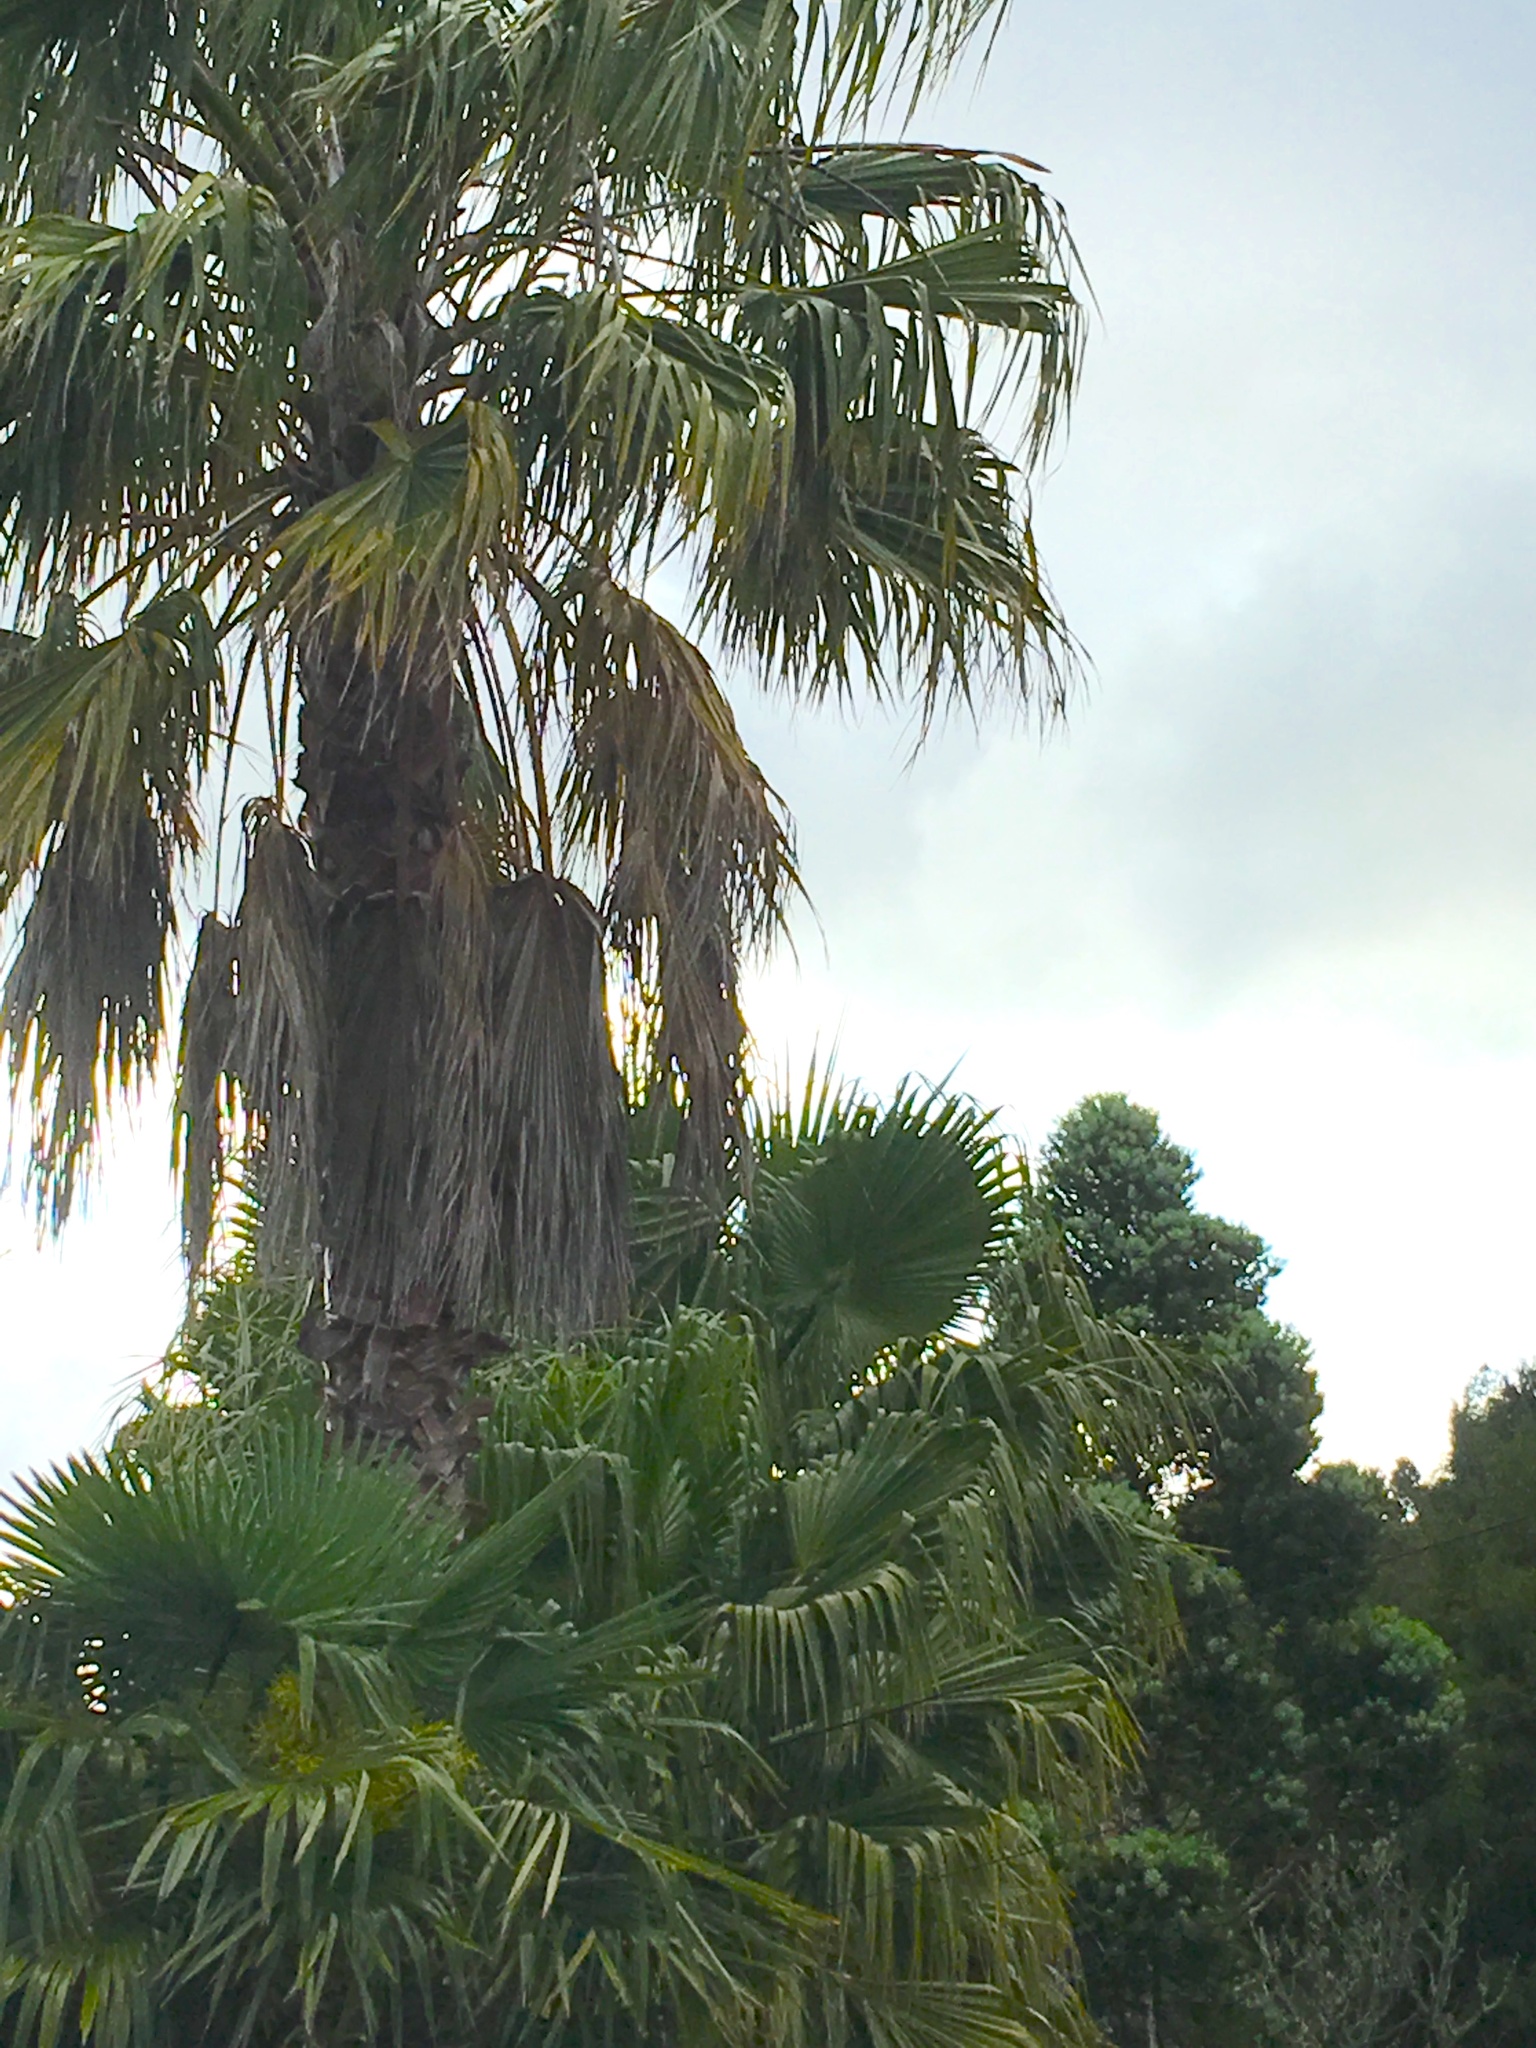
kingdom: Plantae
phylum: Tracheophyta
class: Pinopsida
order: Pinales
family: Araucariaceae
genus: Agathis
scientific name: Agathis australis
